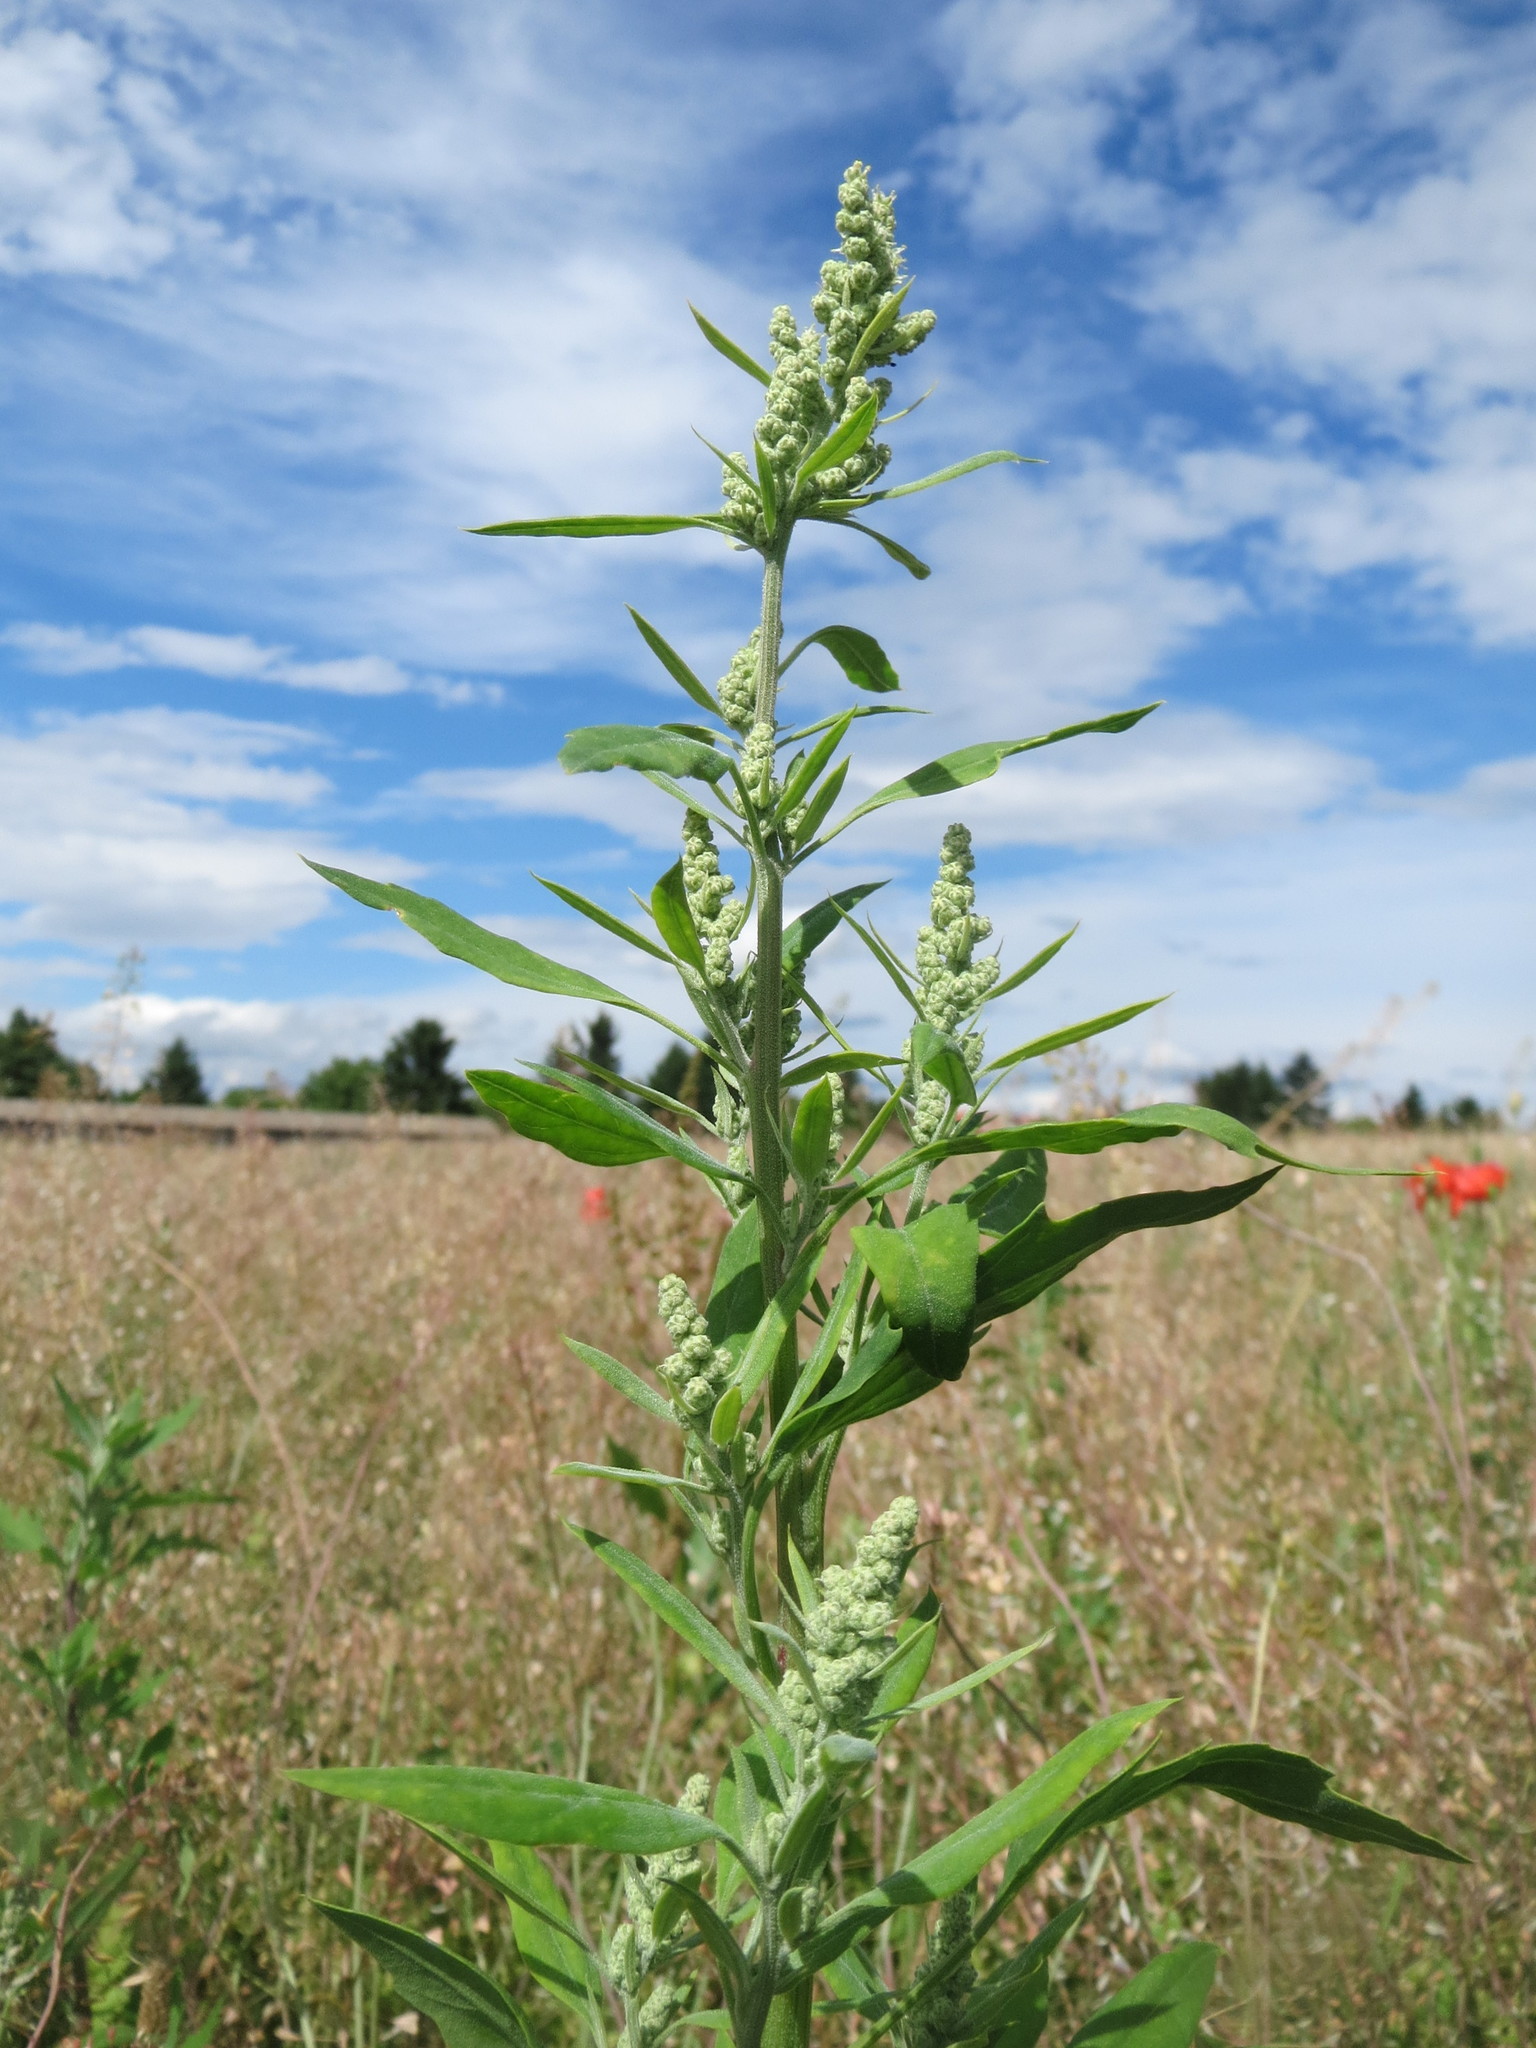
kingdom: Plantae
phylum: Tracheophyta
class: Magnoliopsida
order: Caryophyllales
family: Amaranthaceae
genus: Chenopodium
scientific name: Chenopodium album
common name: Fat-hen
